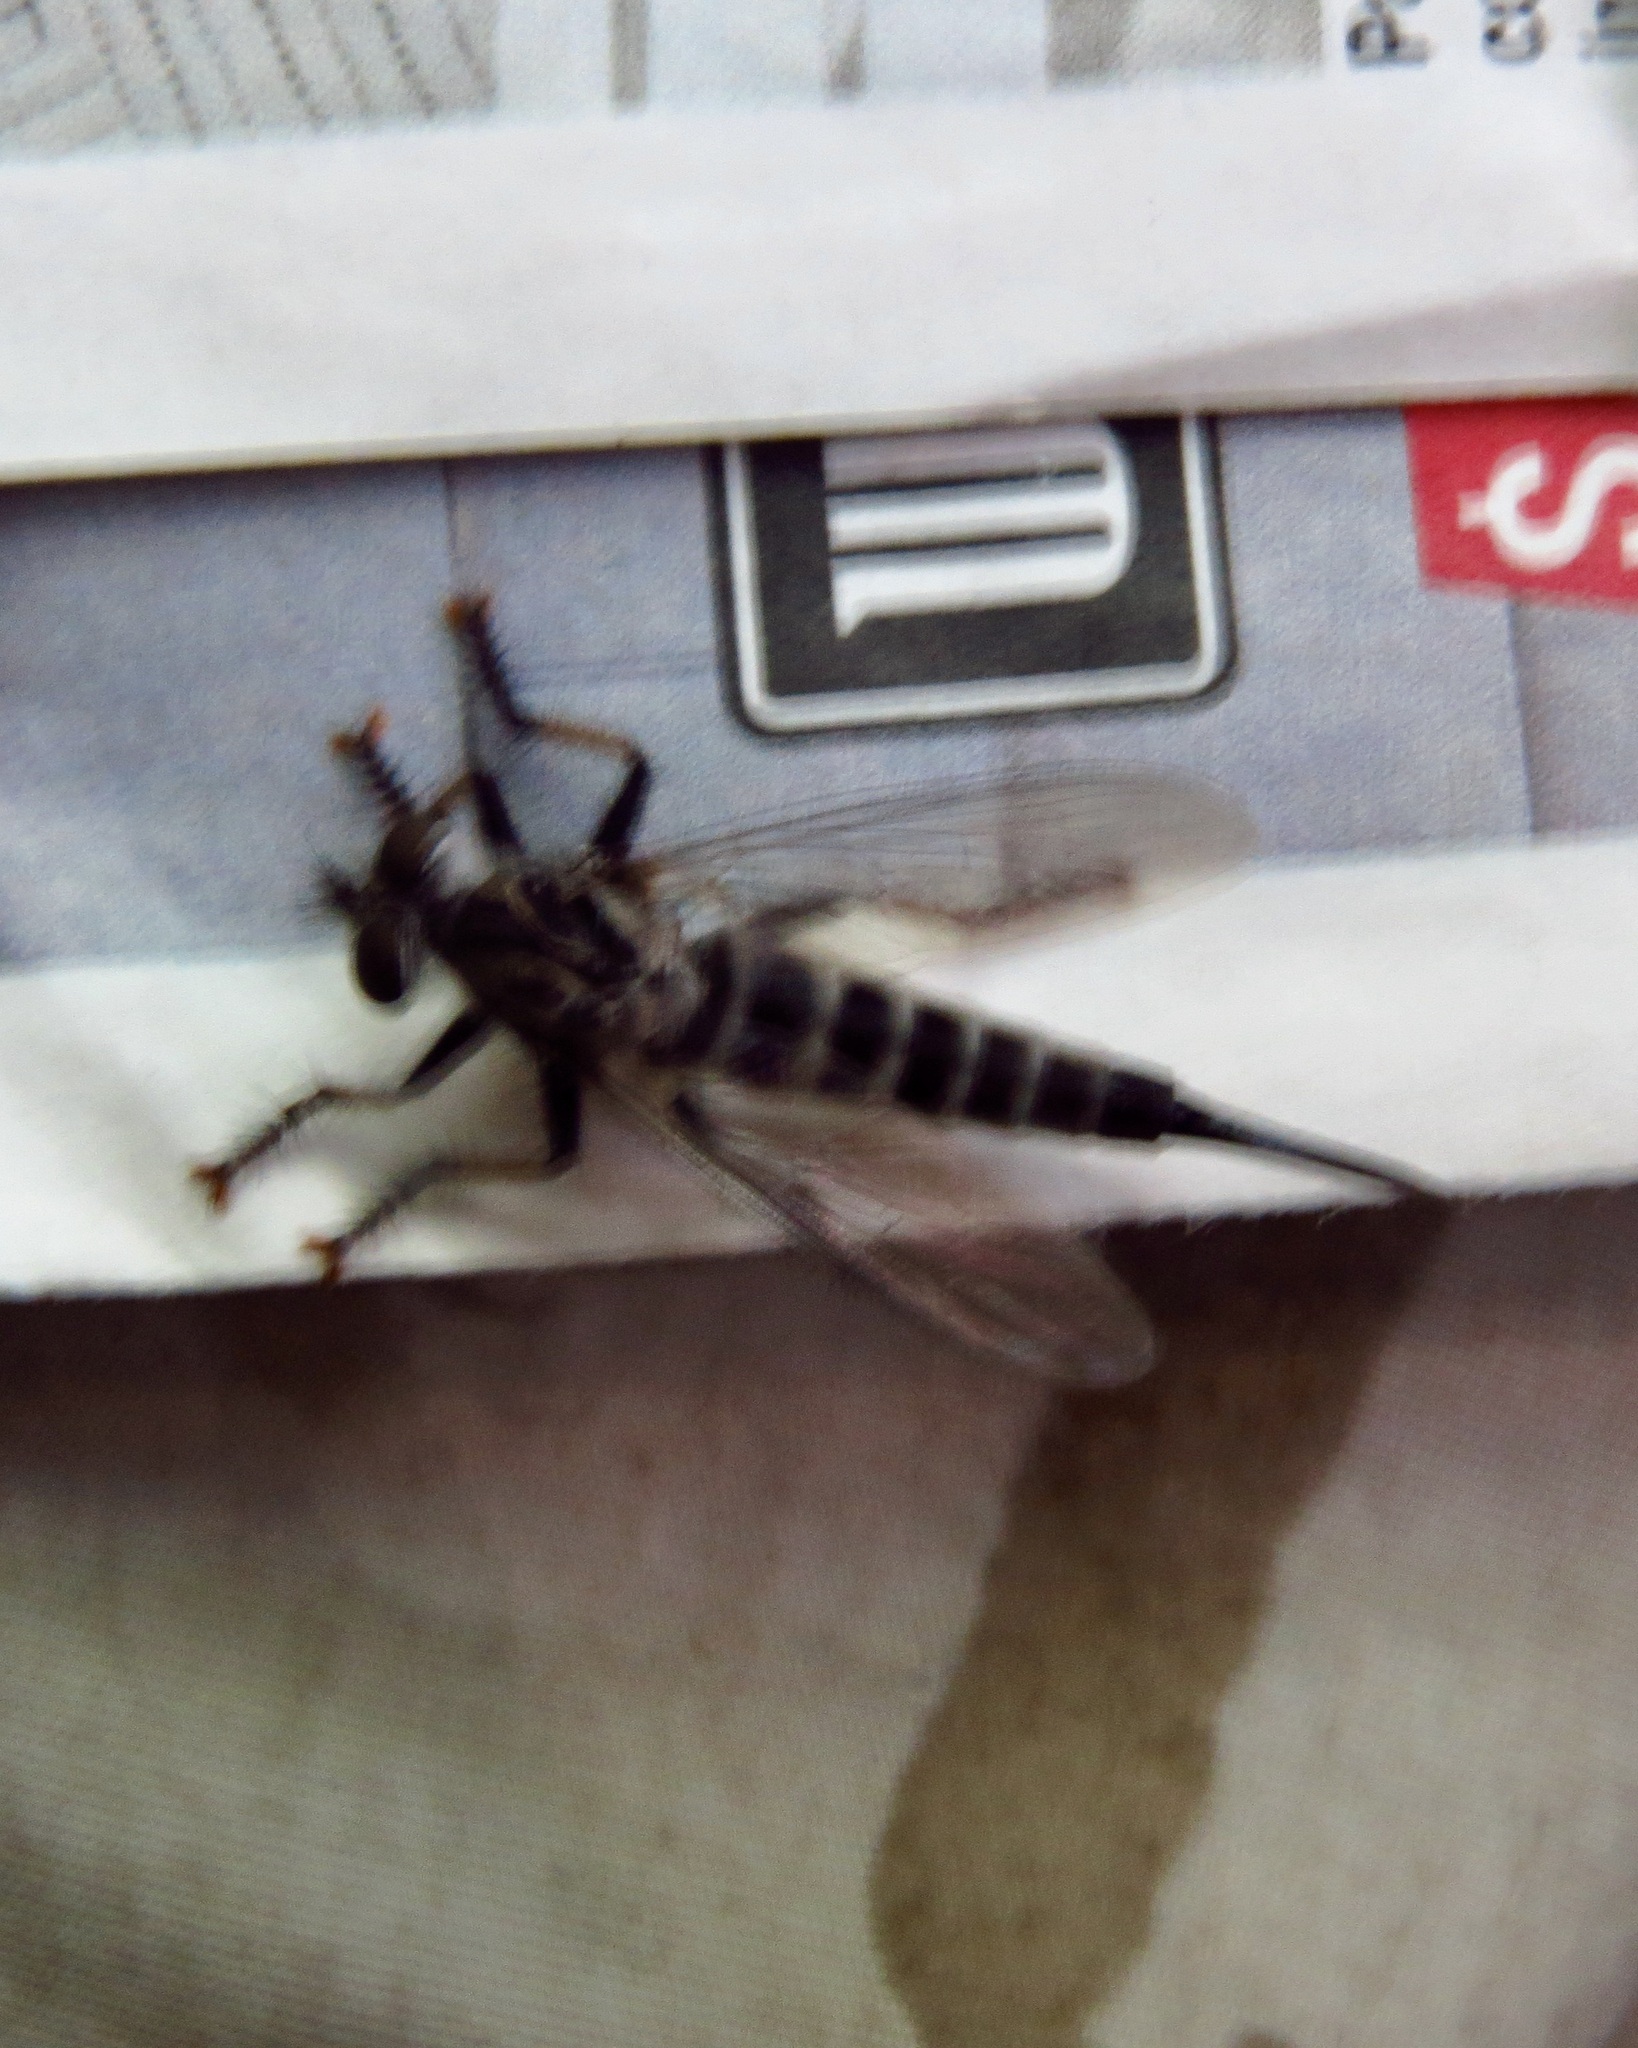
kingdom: Animalia
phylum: Arthropoda
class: Insecta
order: Diptera
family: Asilidae
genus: Efferia
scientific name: Efferia aestuans
